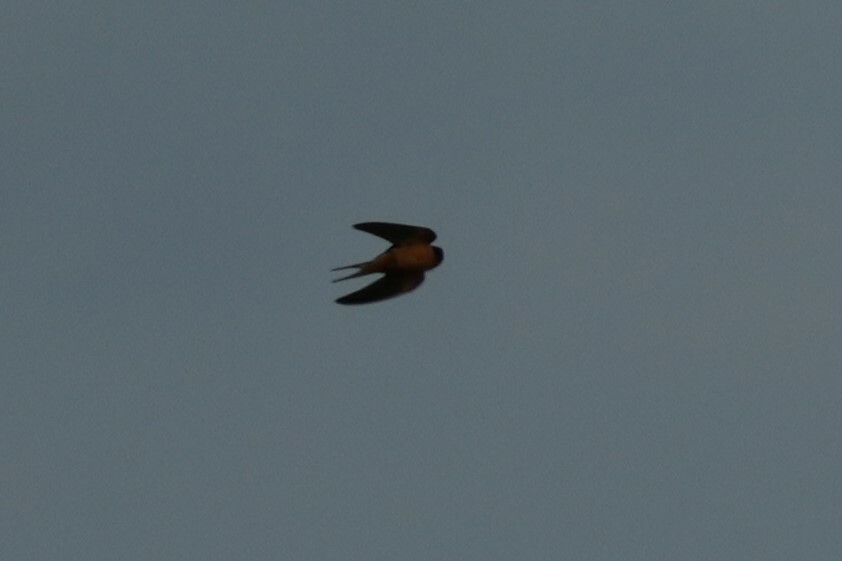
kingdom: Animalia
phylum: Chordata
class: Aves
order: Passeriformes
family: Hirundinidae
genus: Hirundo
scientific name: Hirundo rustica
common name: Barn swallow
